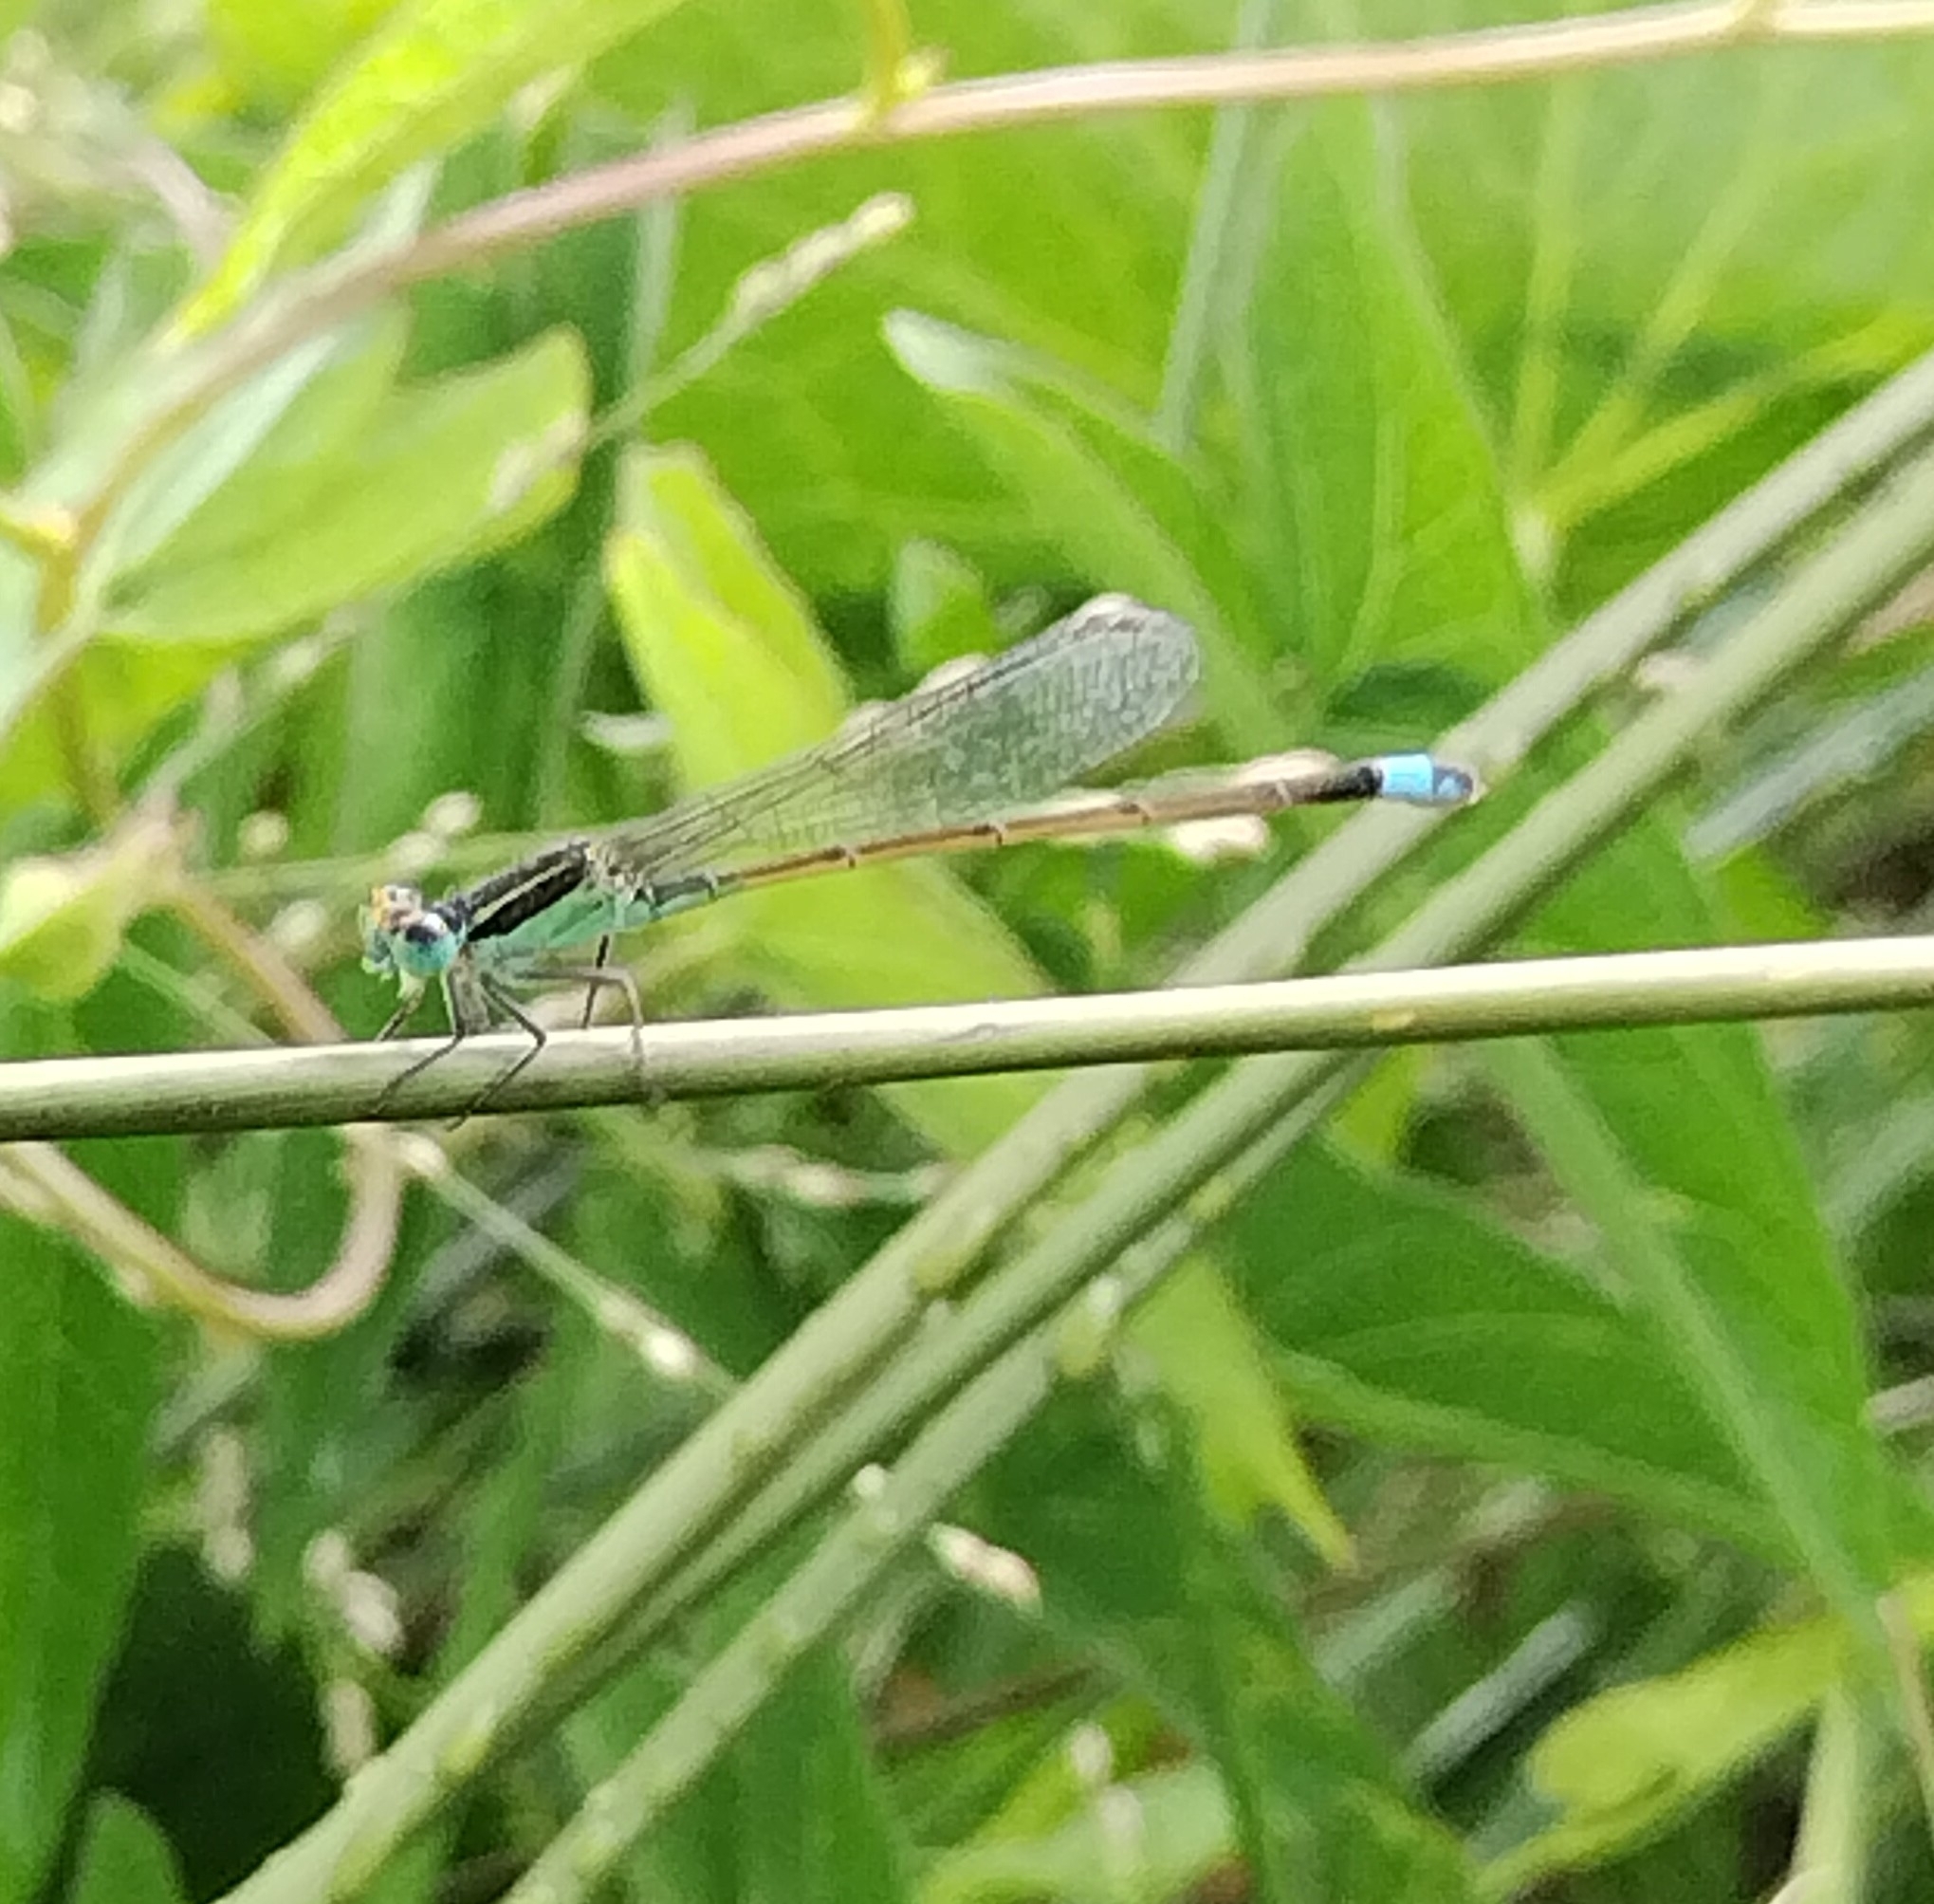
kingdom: Animalia
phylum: Arthropoda
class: Insecta
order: Odonata
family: Coenagrionidae
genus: Ischnura
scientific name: Ischnura ramburii
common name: Rambur's forktail
